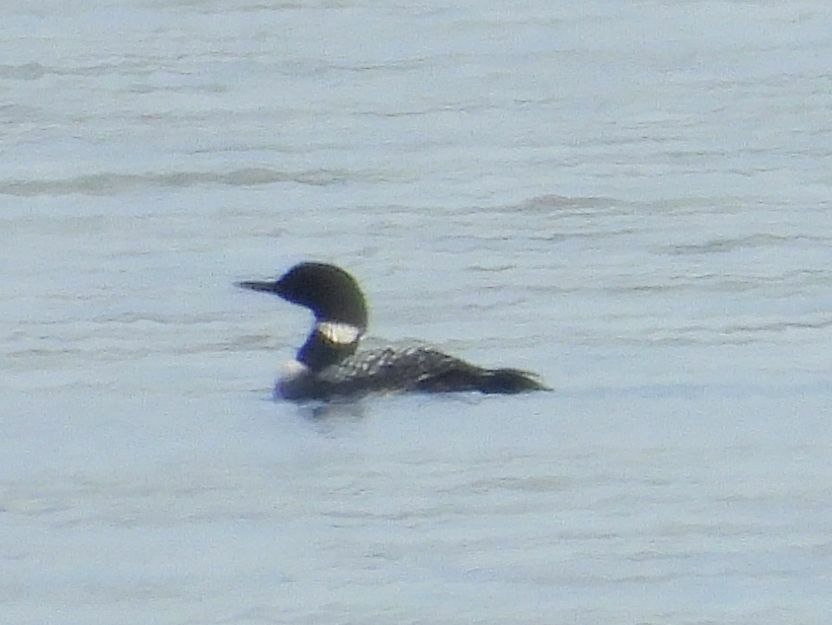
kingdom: Animalia
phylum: Chordata
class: Aves
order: Gaviiformes
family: Gaviidae
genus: Gavia
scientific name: Gavia immer
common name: Common loon
